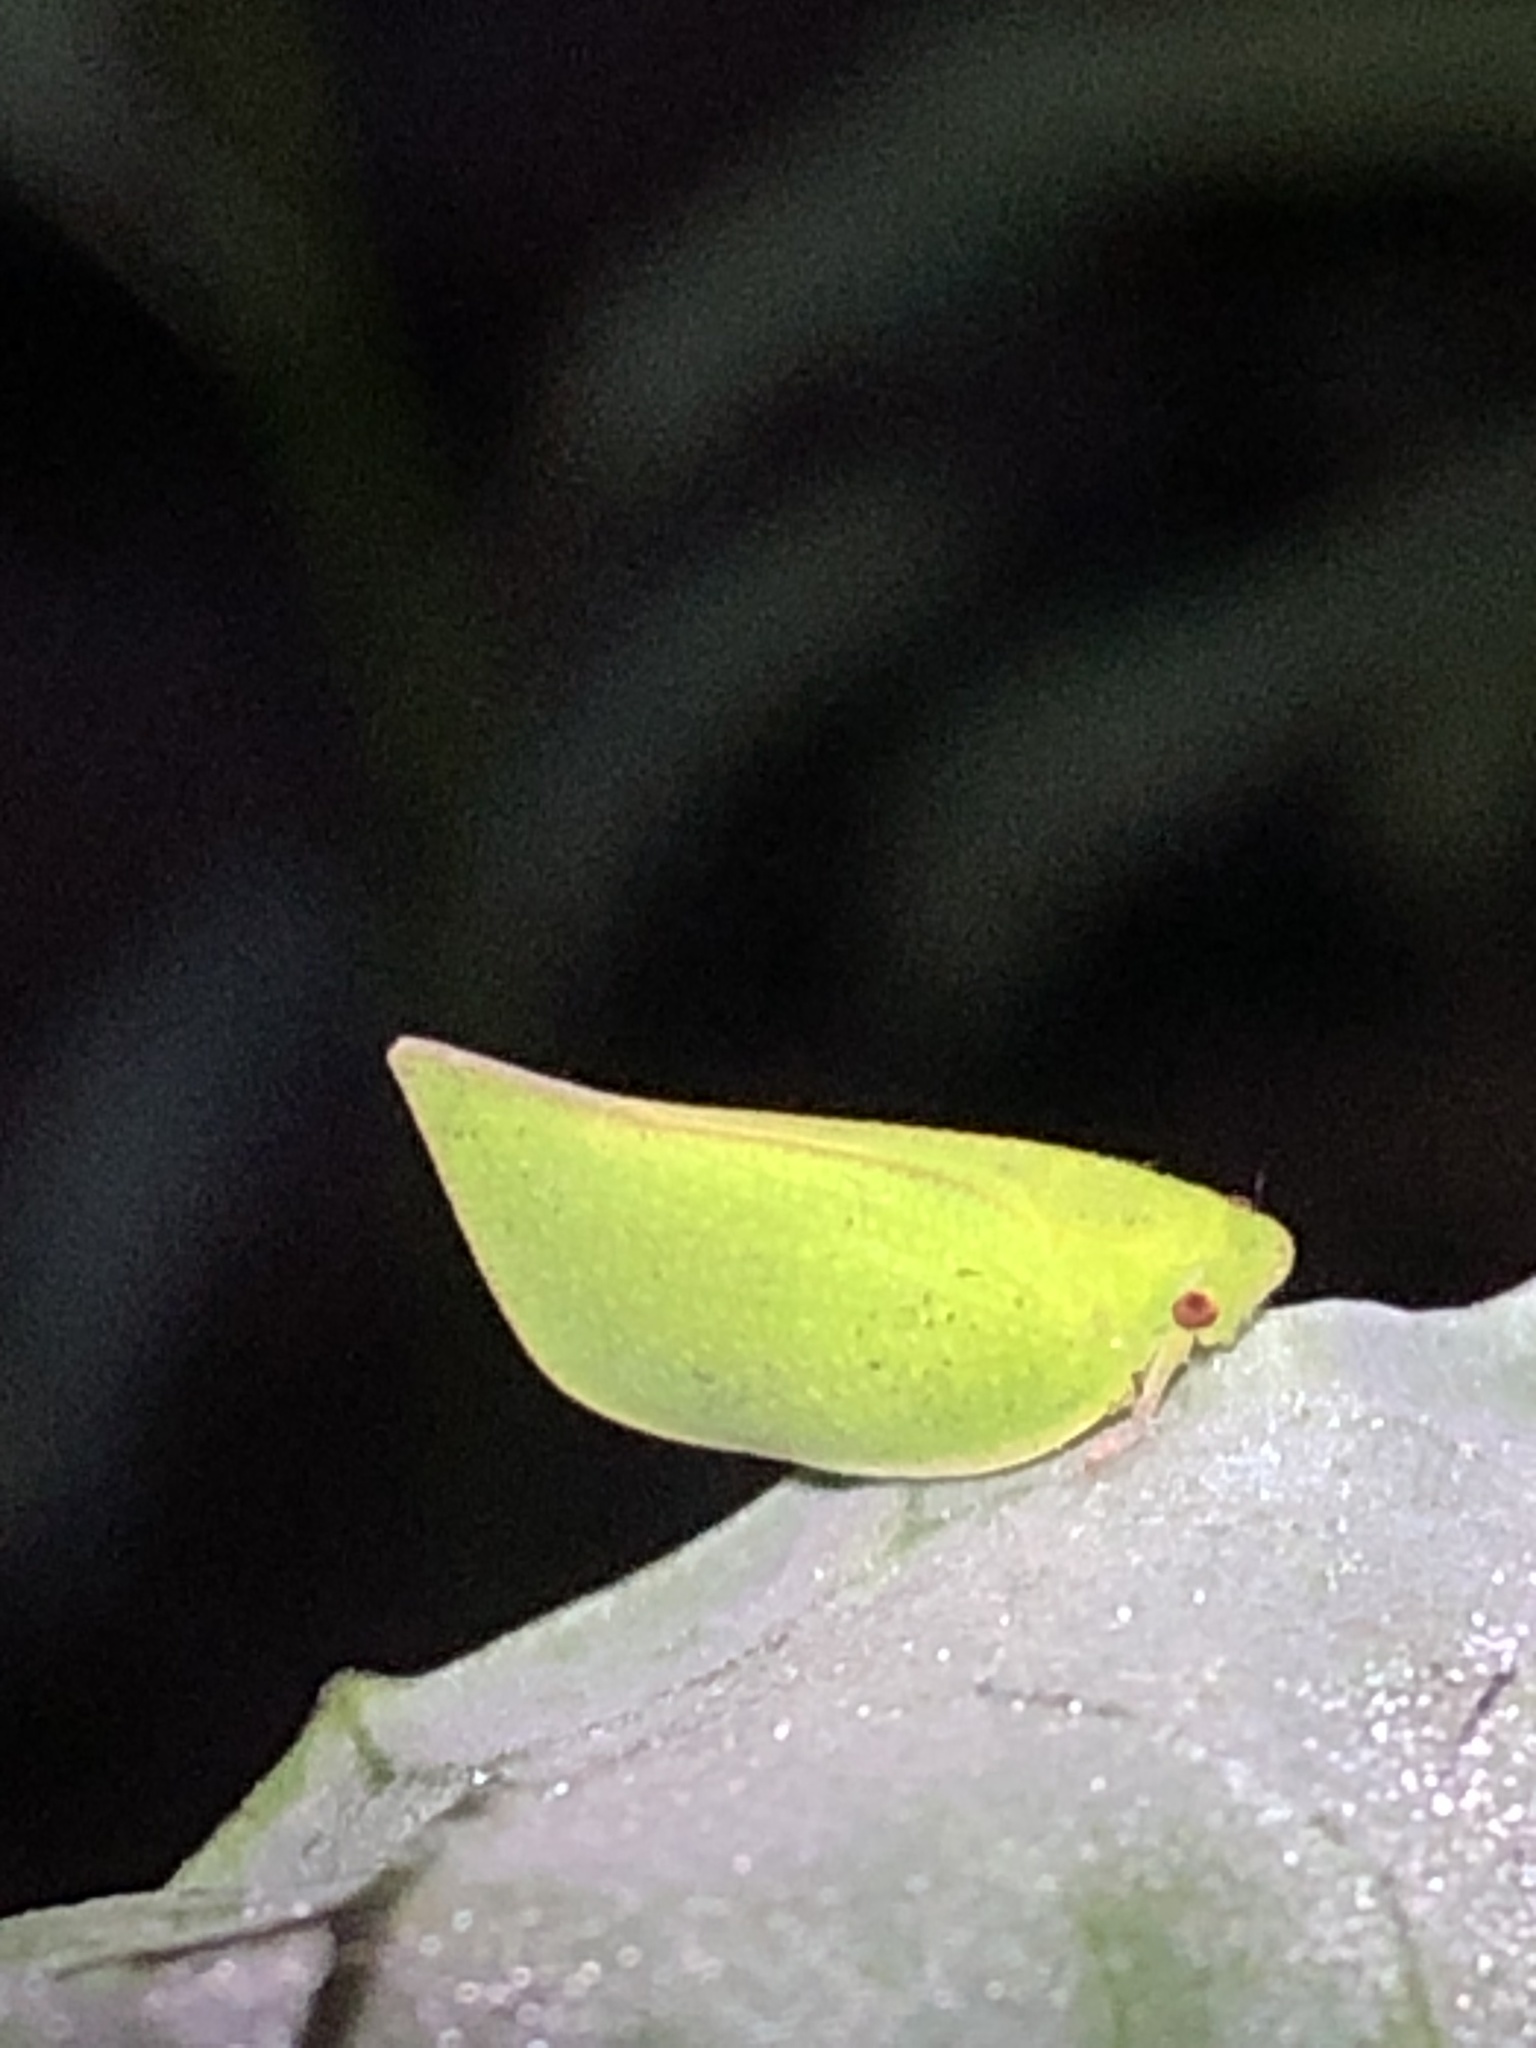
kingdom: Animalia
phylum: Arthropoda
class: Insecta
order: Hemiptera
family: Flatidae
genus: Siphanta
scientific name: Siphanta acuta
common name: Torpedo bug
